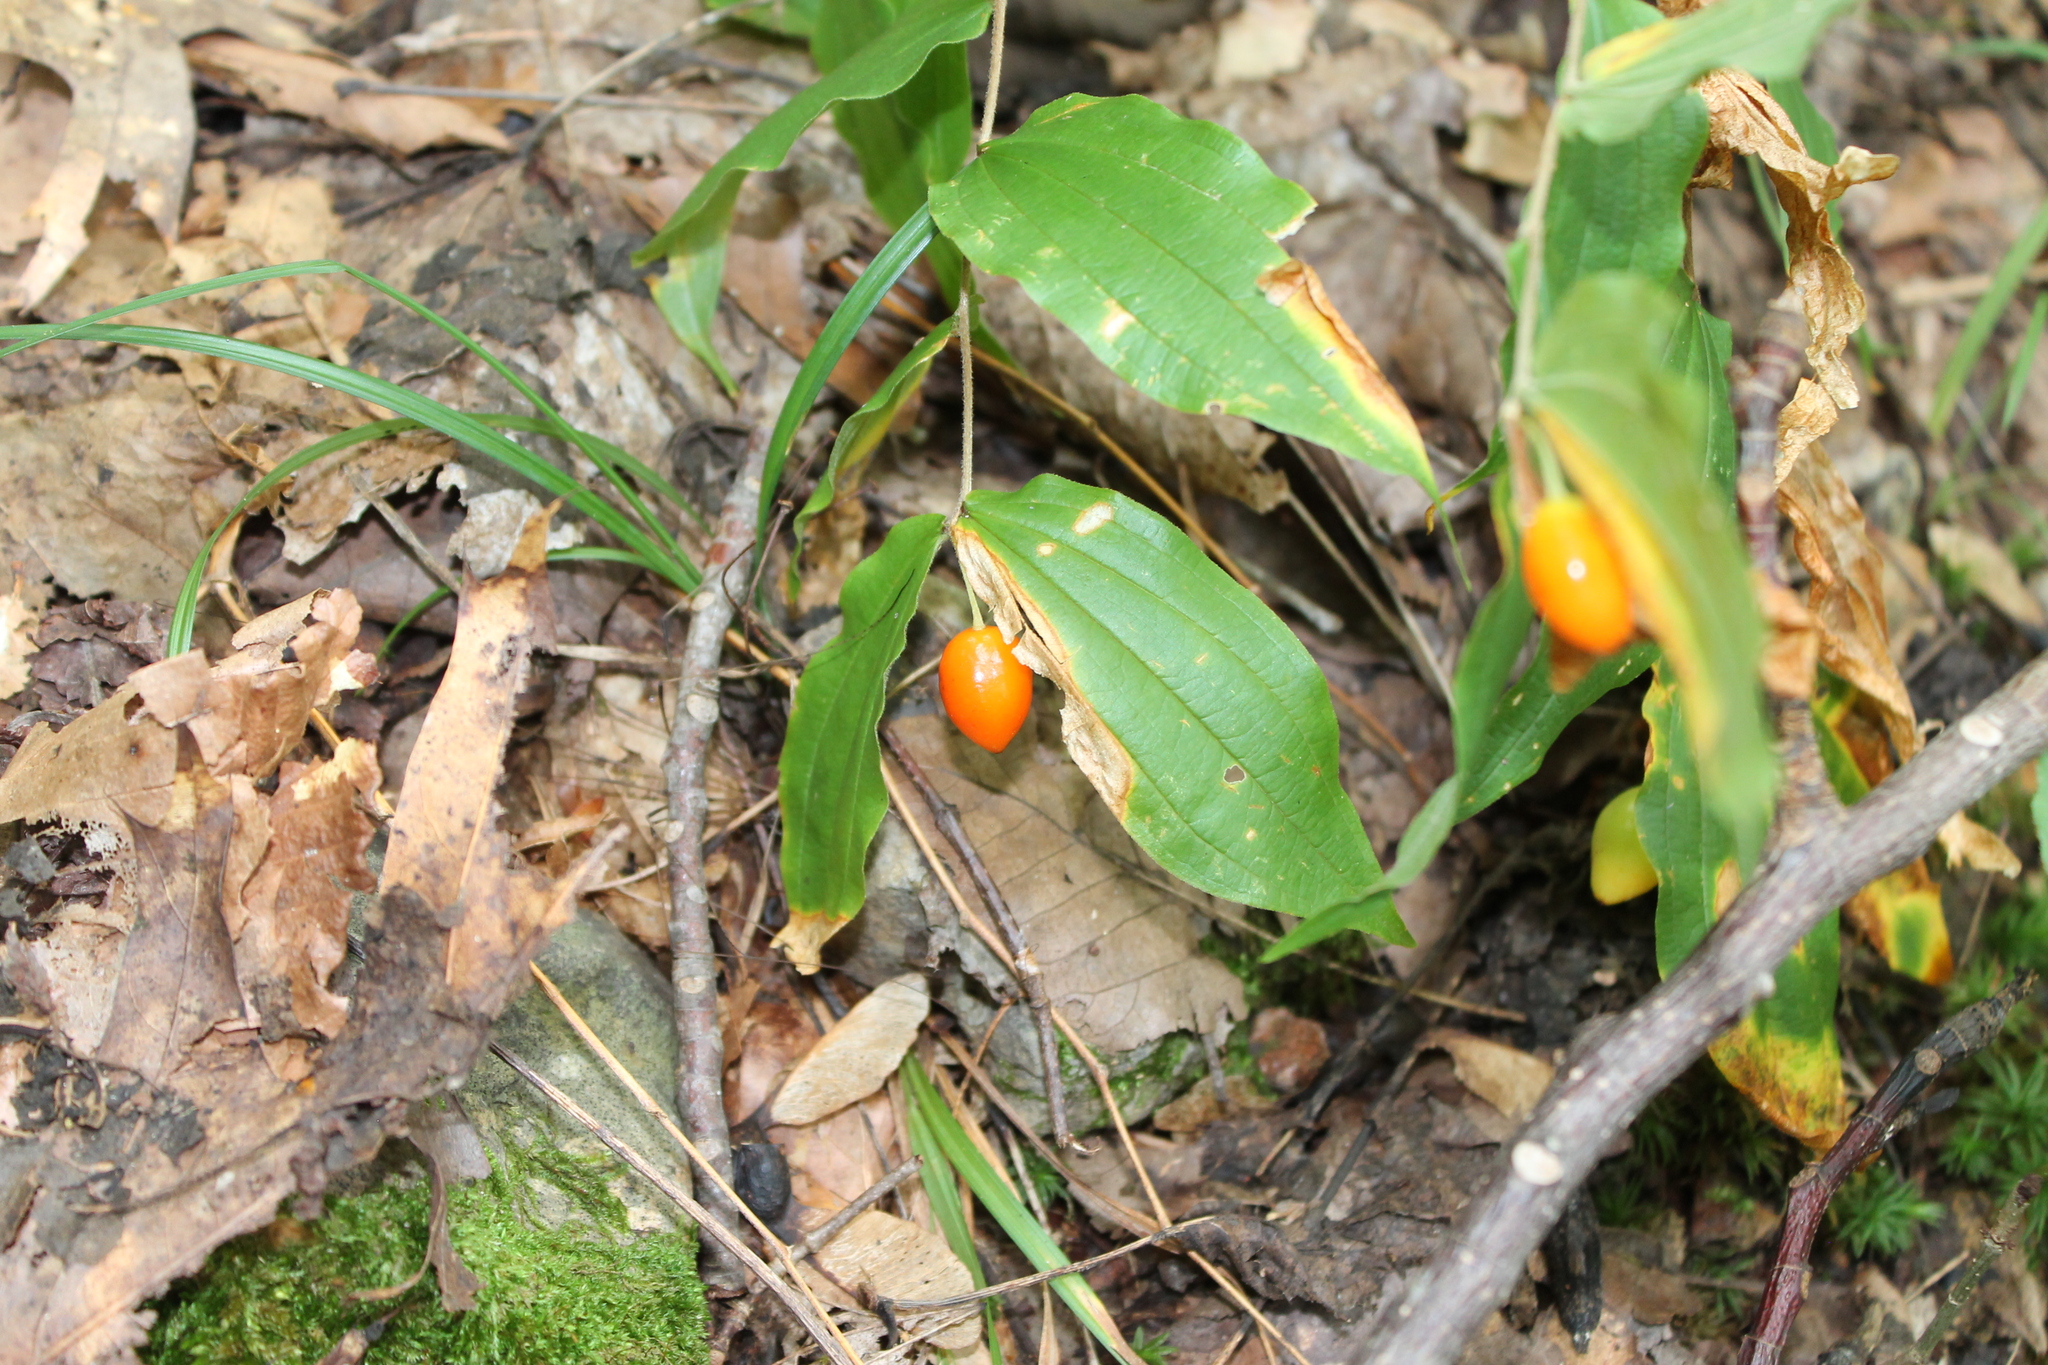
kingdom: Plantae
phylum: Tracheophyta
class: Liliopsida
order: Liliales
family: Liliaceae
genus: Prosartes
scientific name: Prosartes lanuginosa
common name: Hairy mandarin
